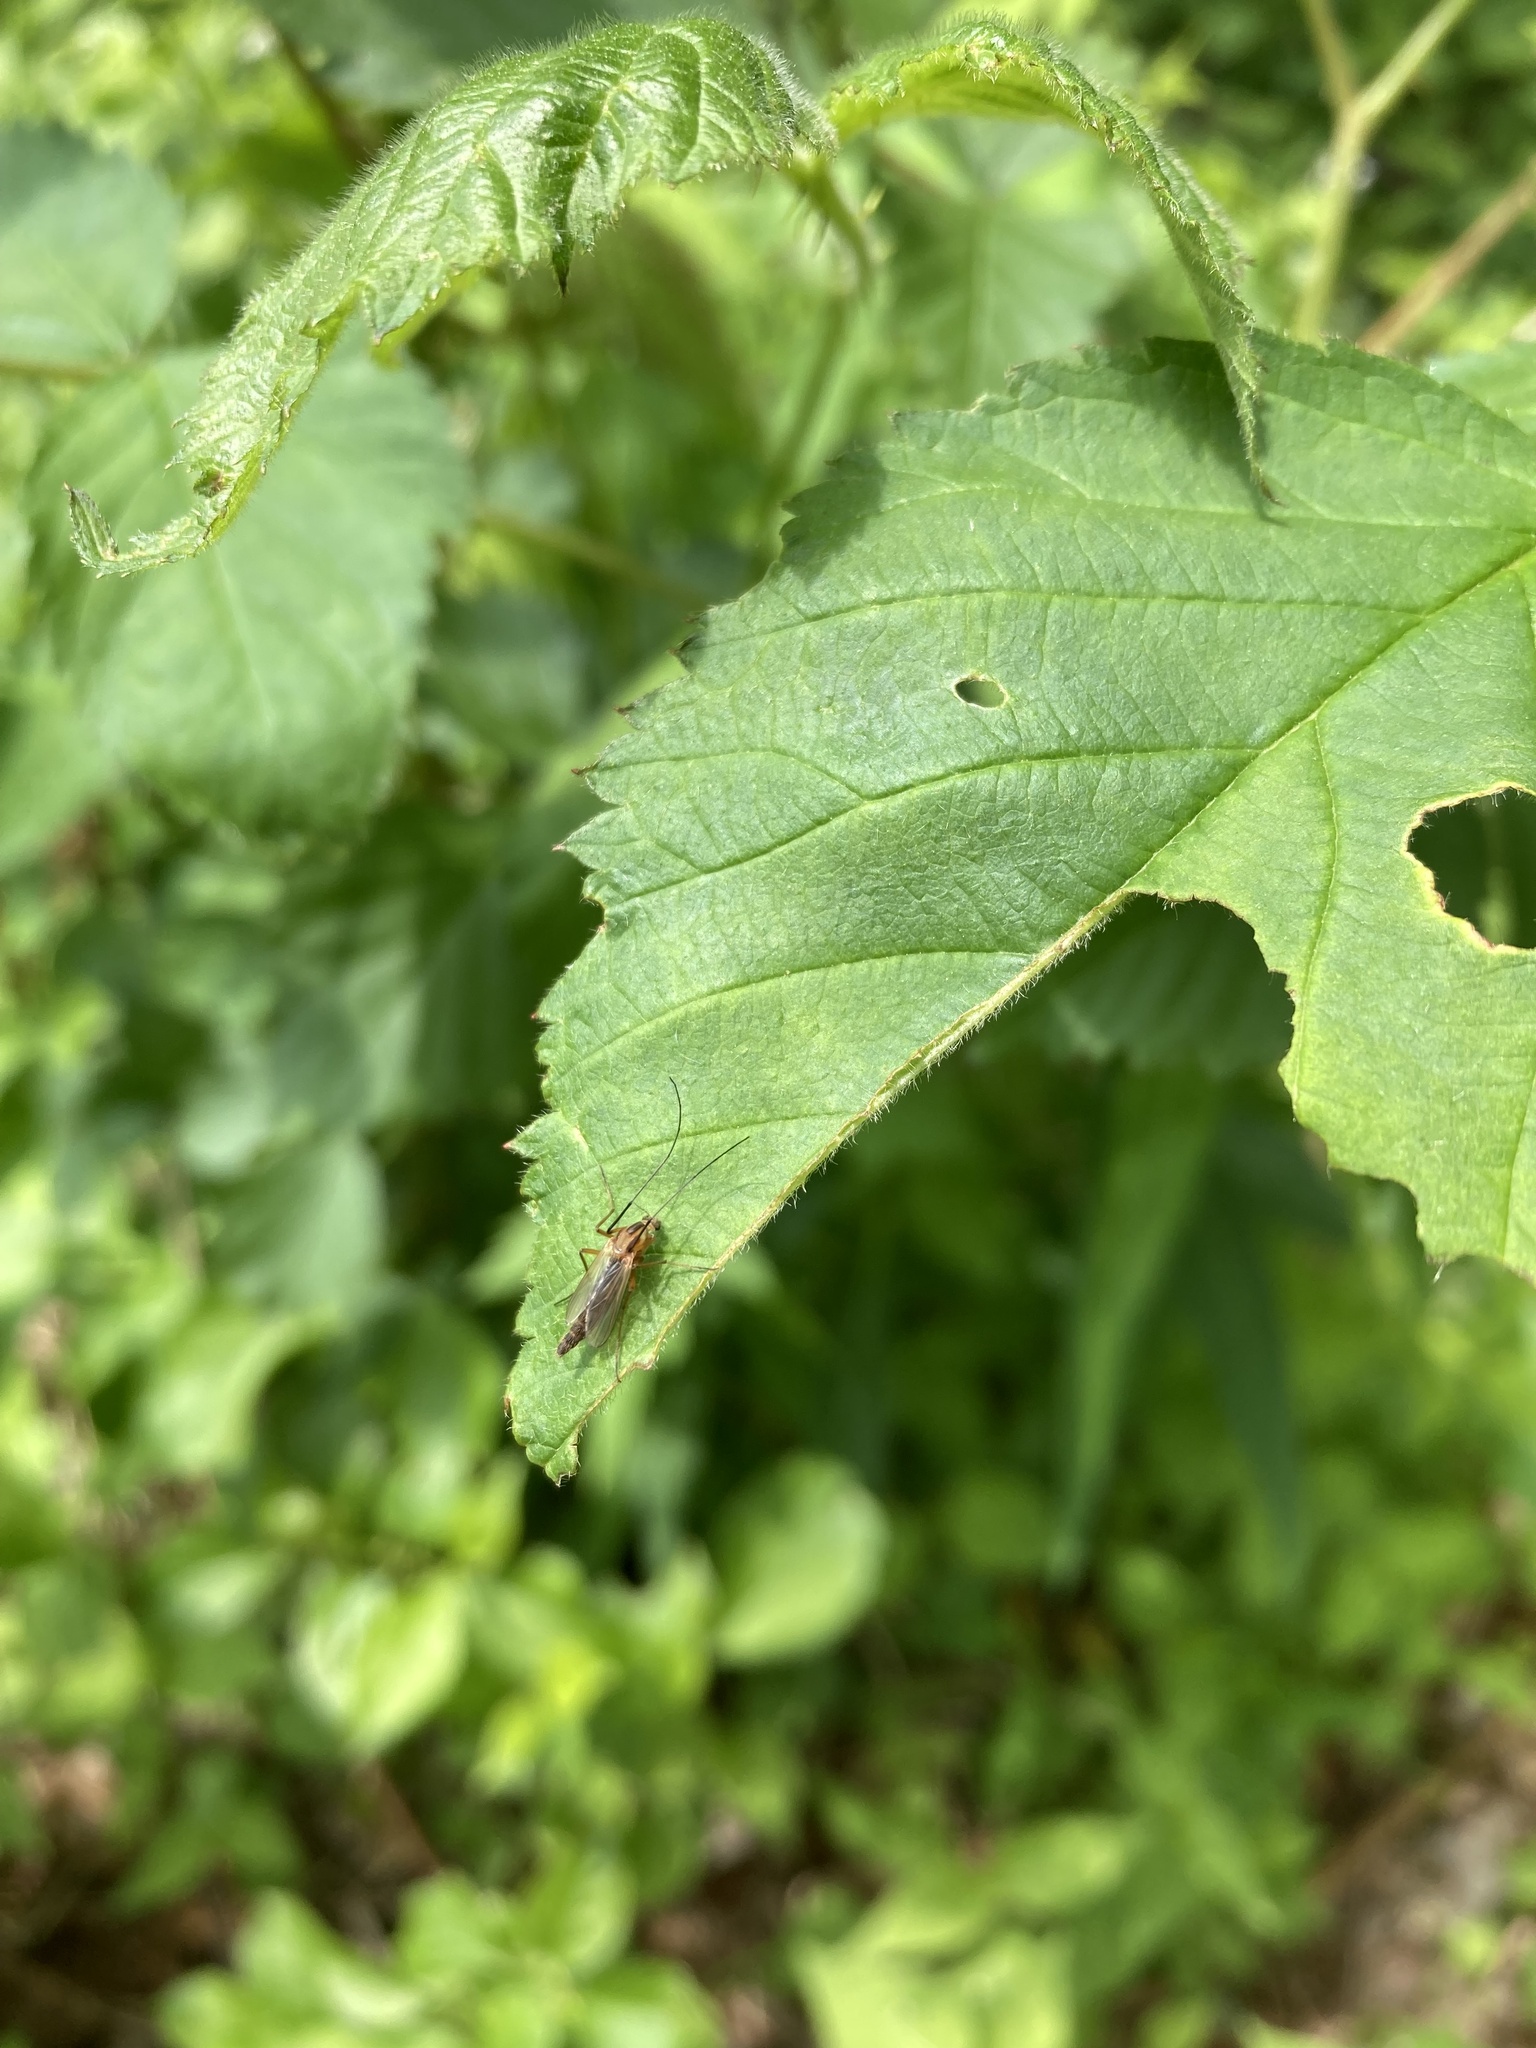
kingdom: Animalia
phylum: Arthropoda
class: Insecta
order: Diptera
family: Chironomidae
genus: Chironomus
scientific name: Chironomus ochreatus
